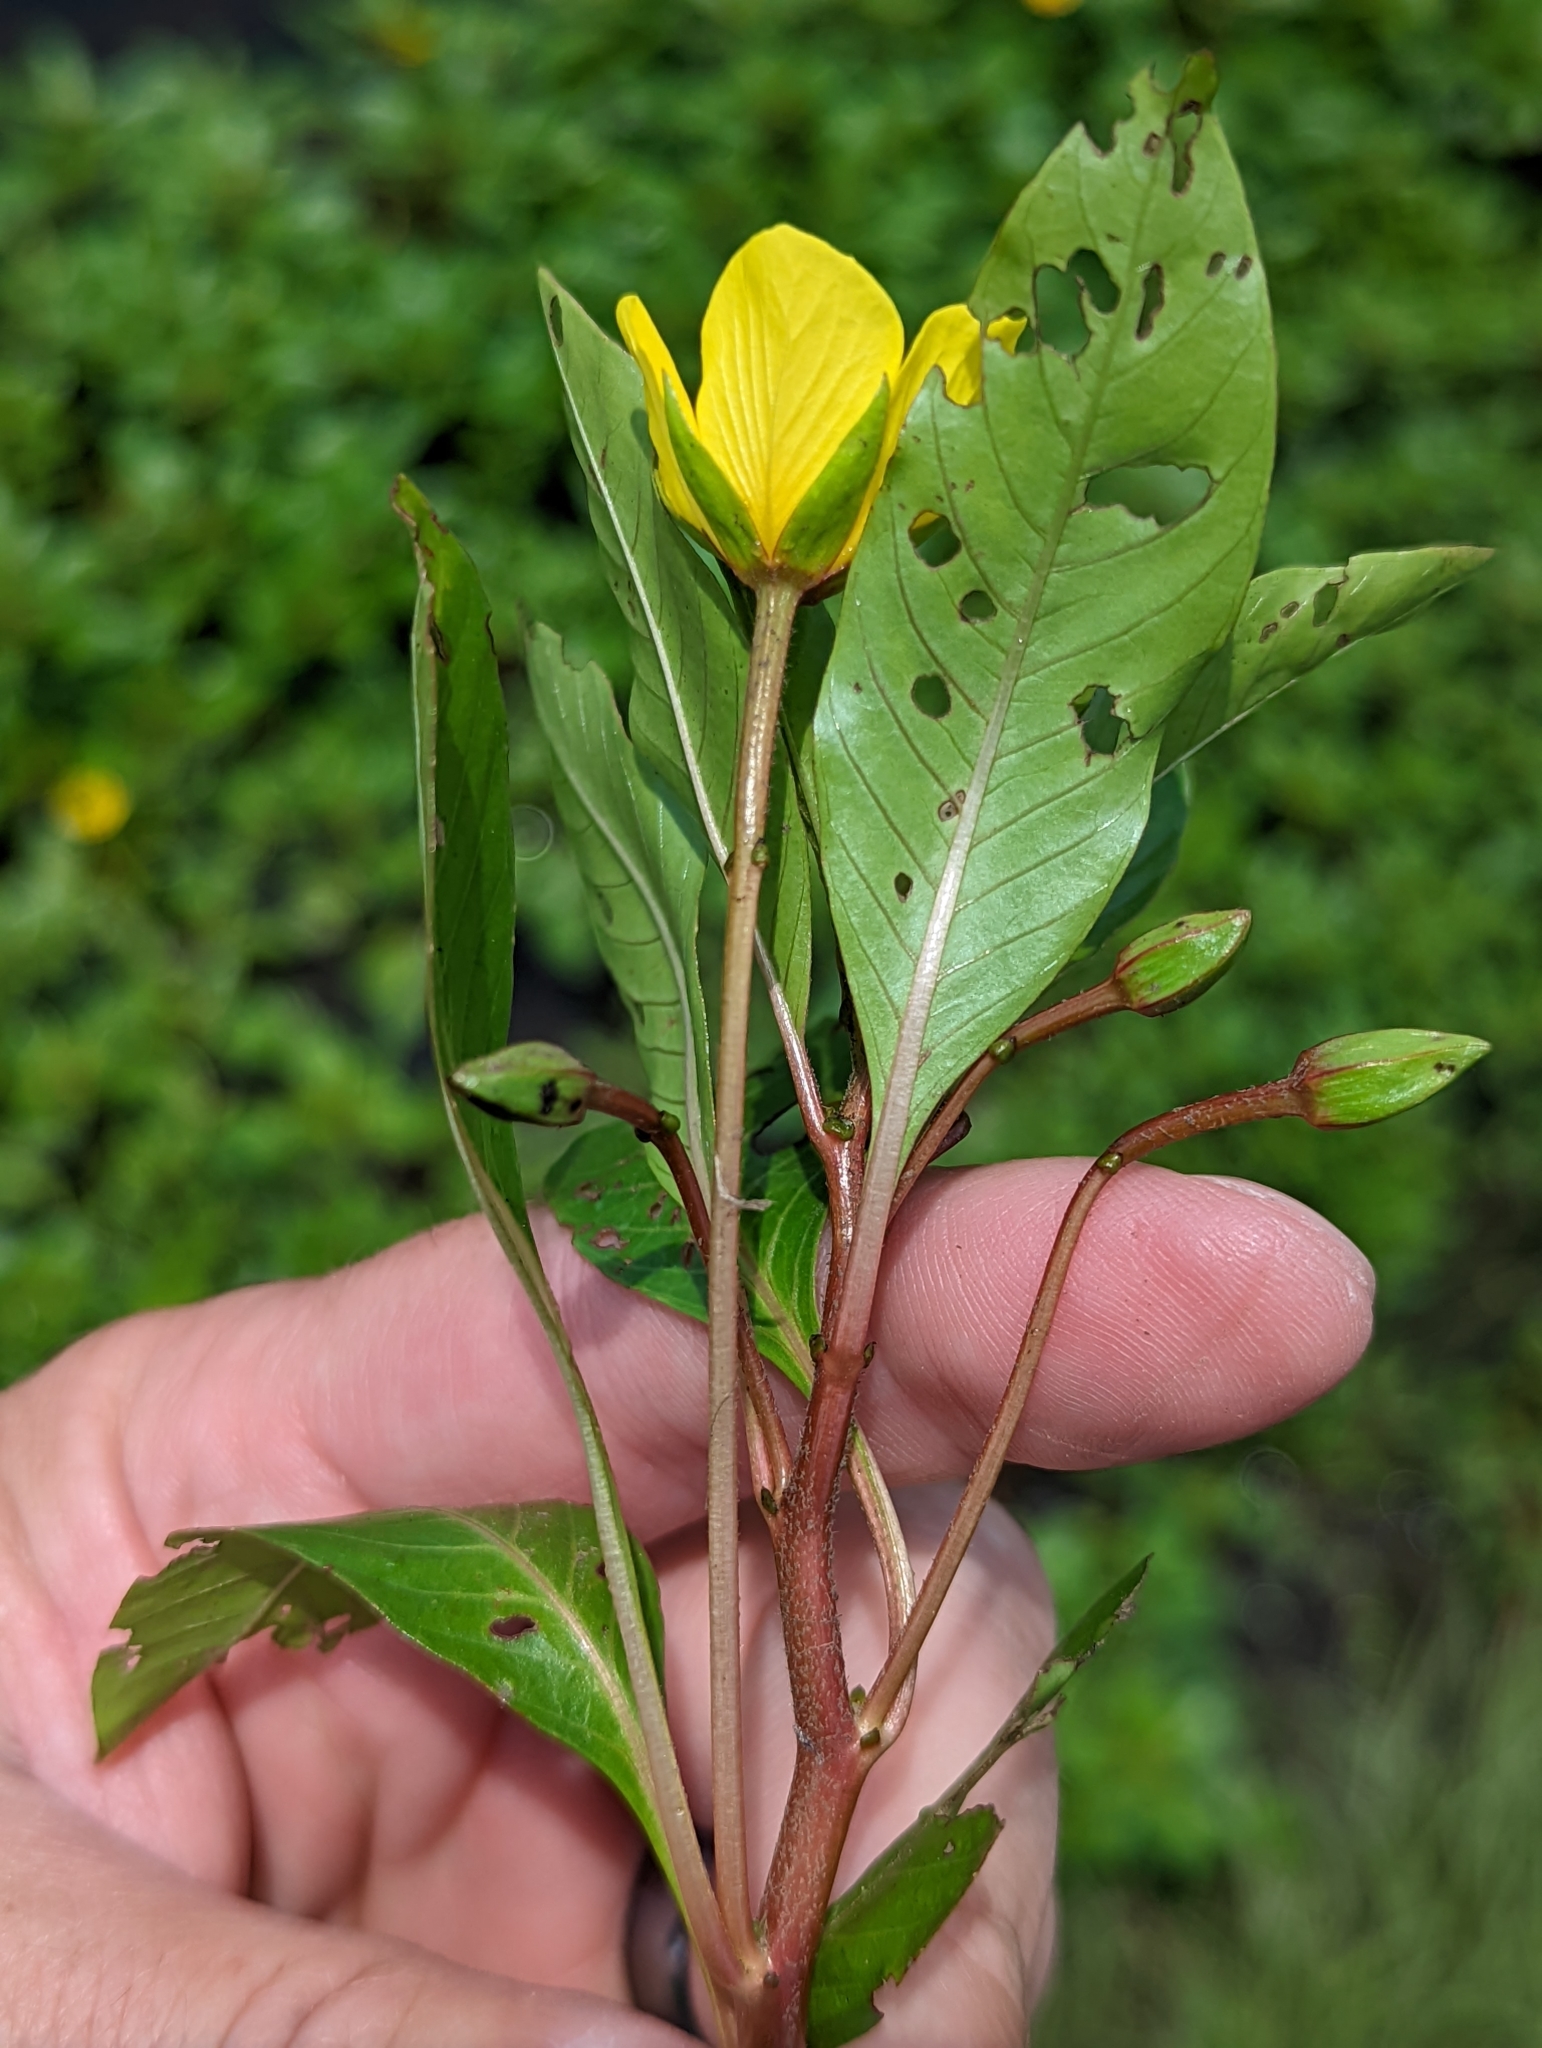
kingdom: Plantae
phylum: Tracheophyta
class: Magnoliopsida
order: Myrtales
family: Onagraceae
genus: Ludwigia
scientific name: Ludwigia peploides
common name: Floating primrose-willow
